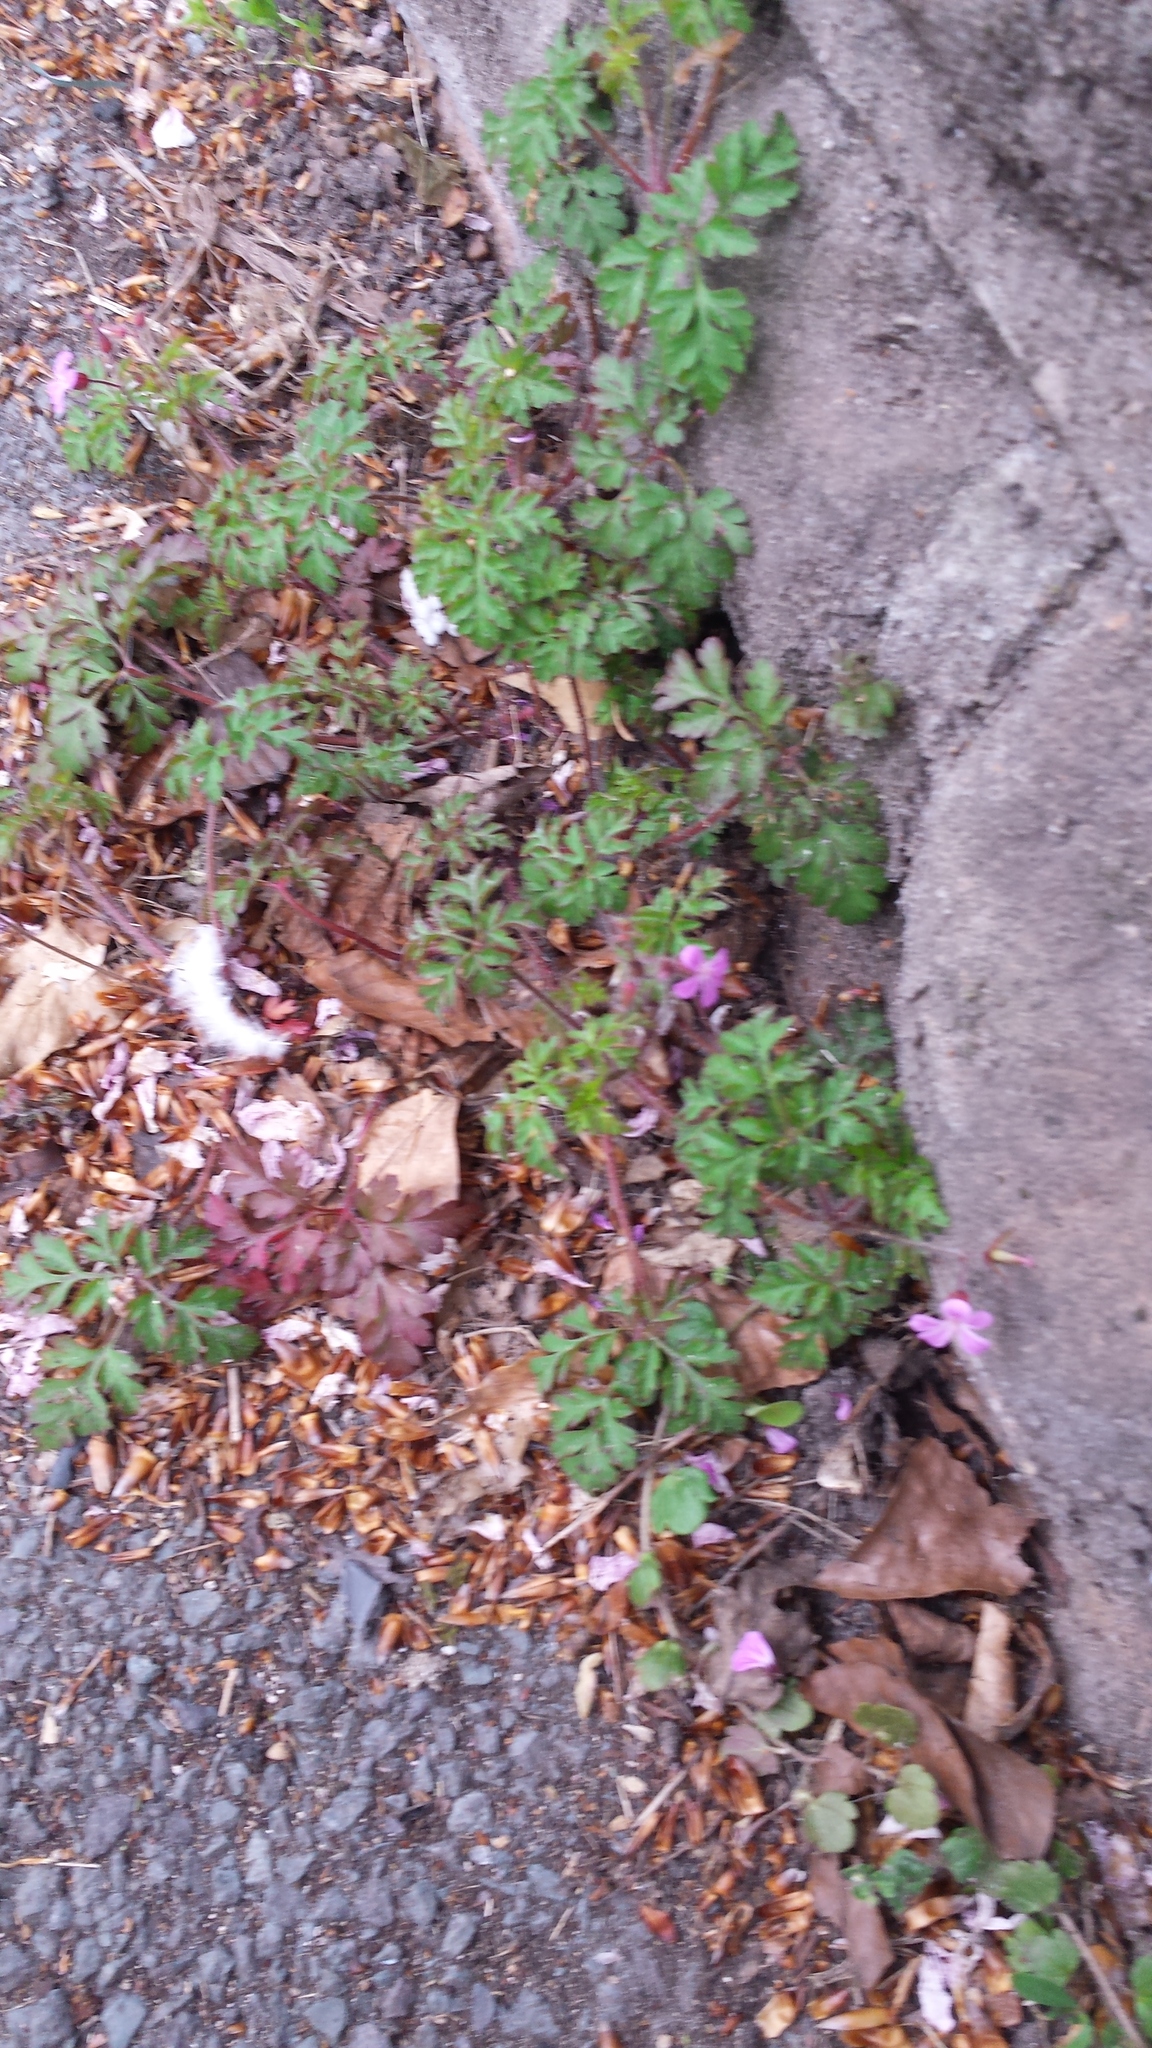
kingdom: Plantae
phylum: Tracheophyta
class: Magnoliopsida
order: Geraniales
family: Geraniaceae
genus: Geranium
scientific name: Geranium robertianum
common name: Herb-robert
